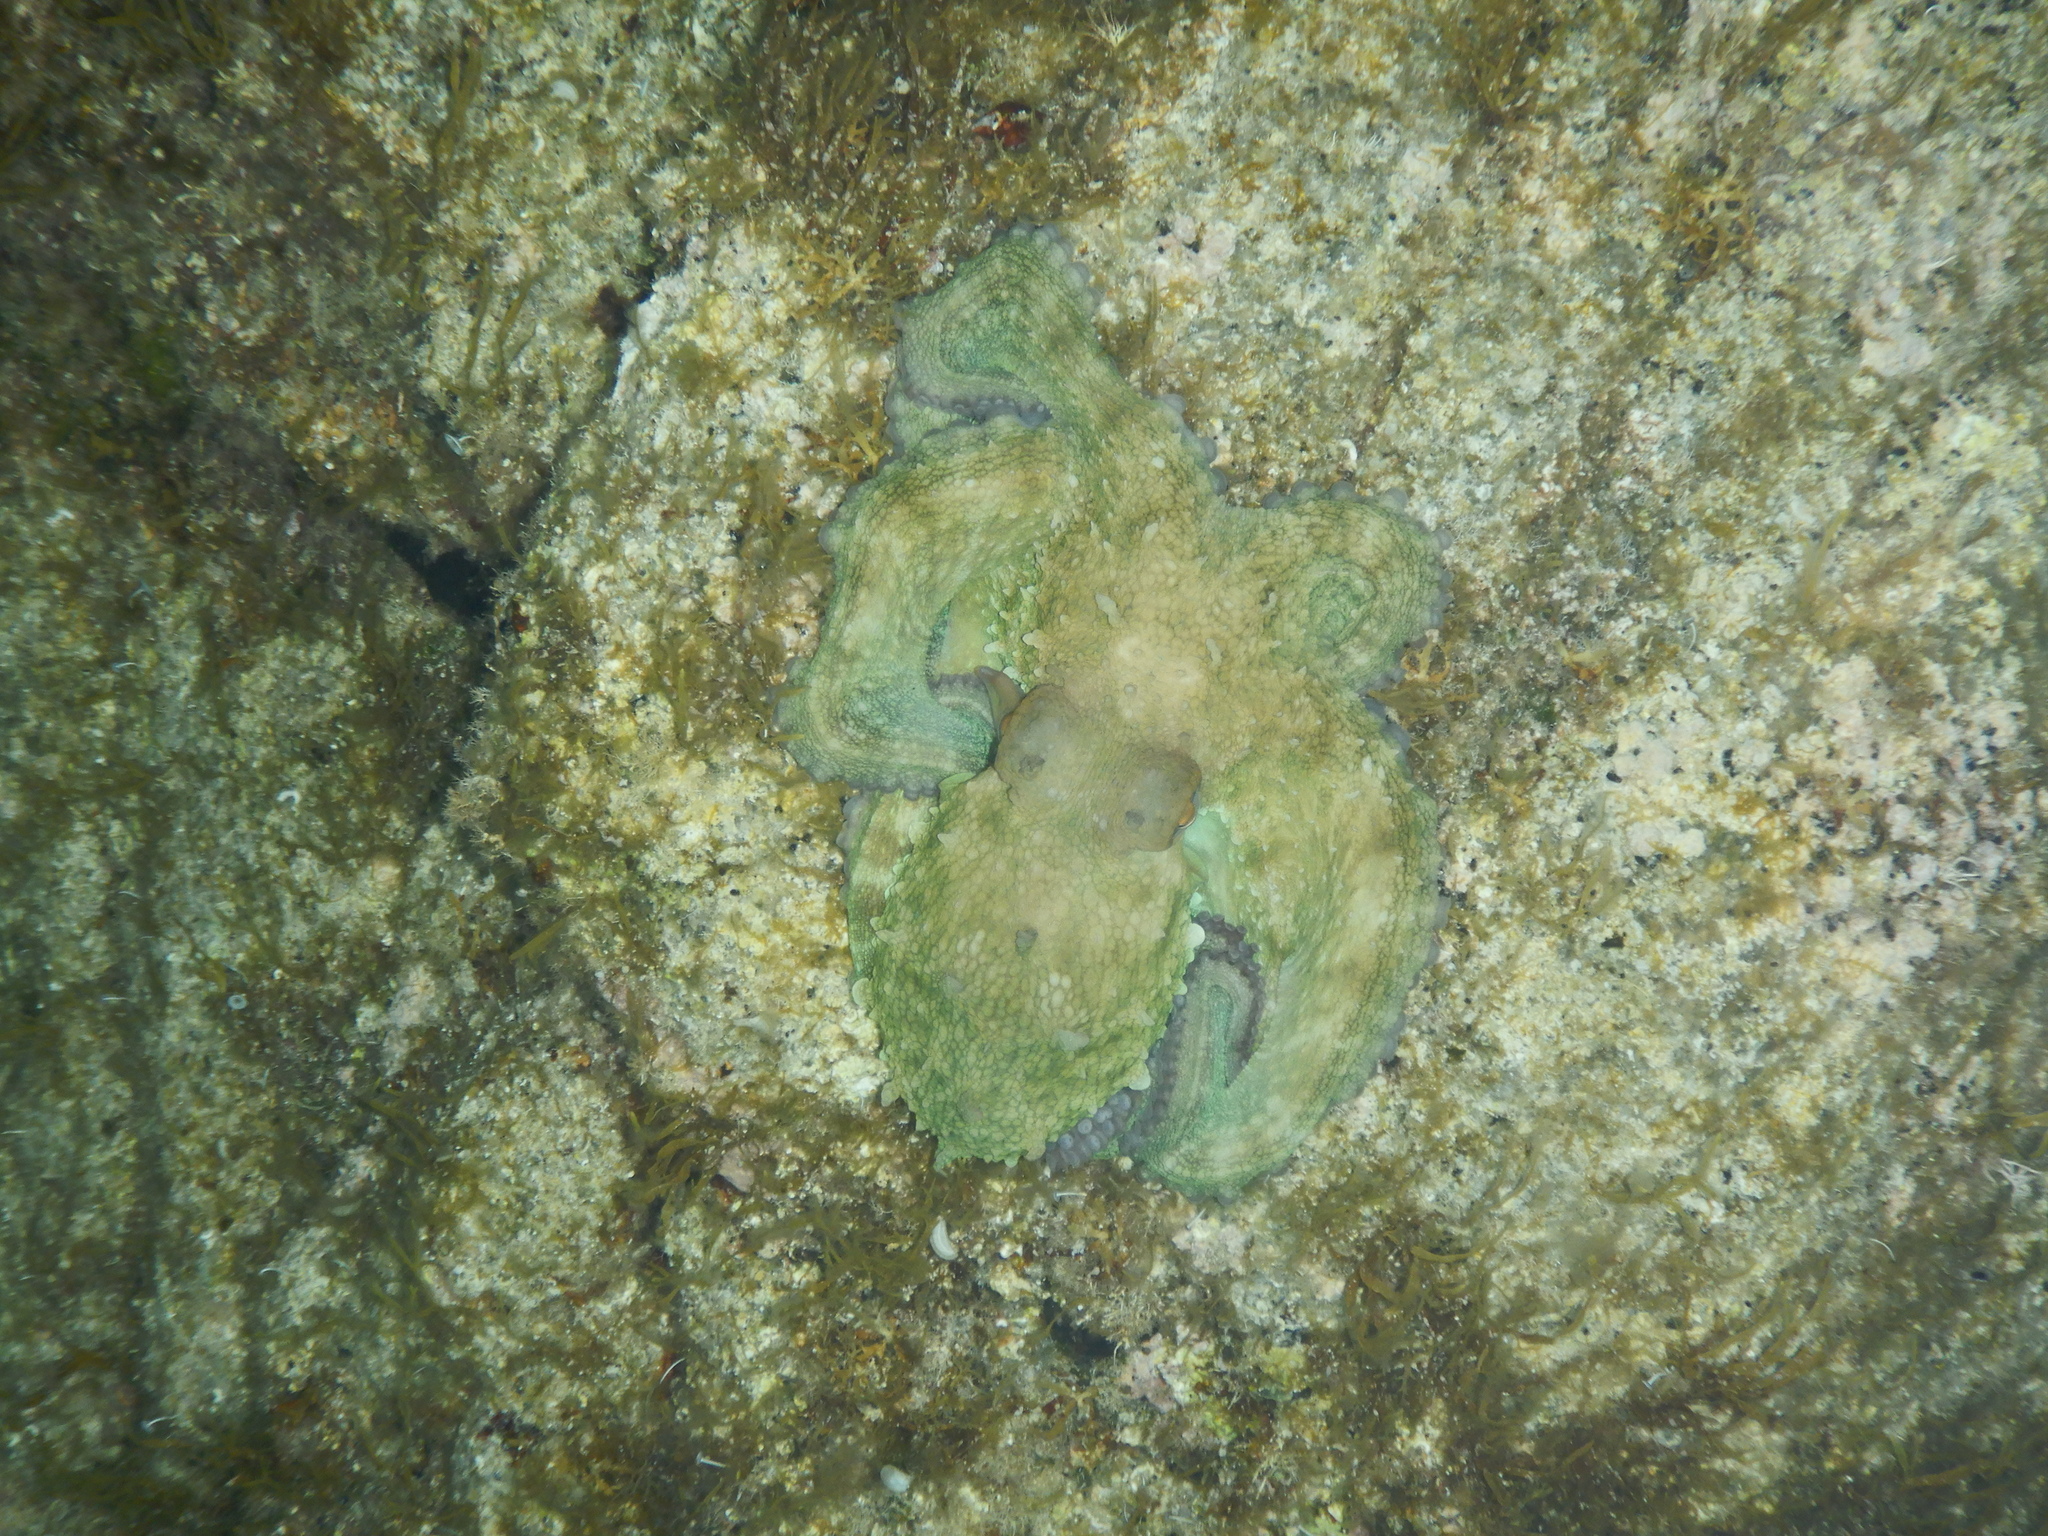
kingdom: Animalia
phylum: Mollusca
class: Cephalopoda
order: Octopoda
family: Octopodidae
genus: Octopus
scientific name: Octopus vulgaris
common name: Common octopus
